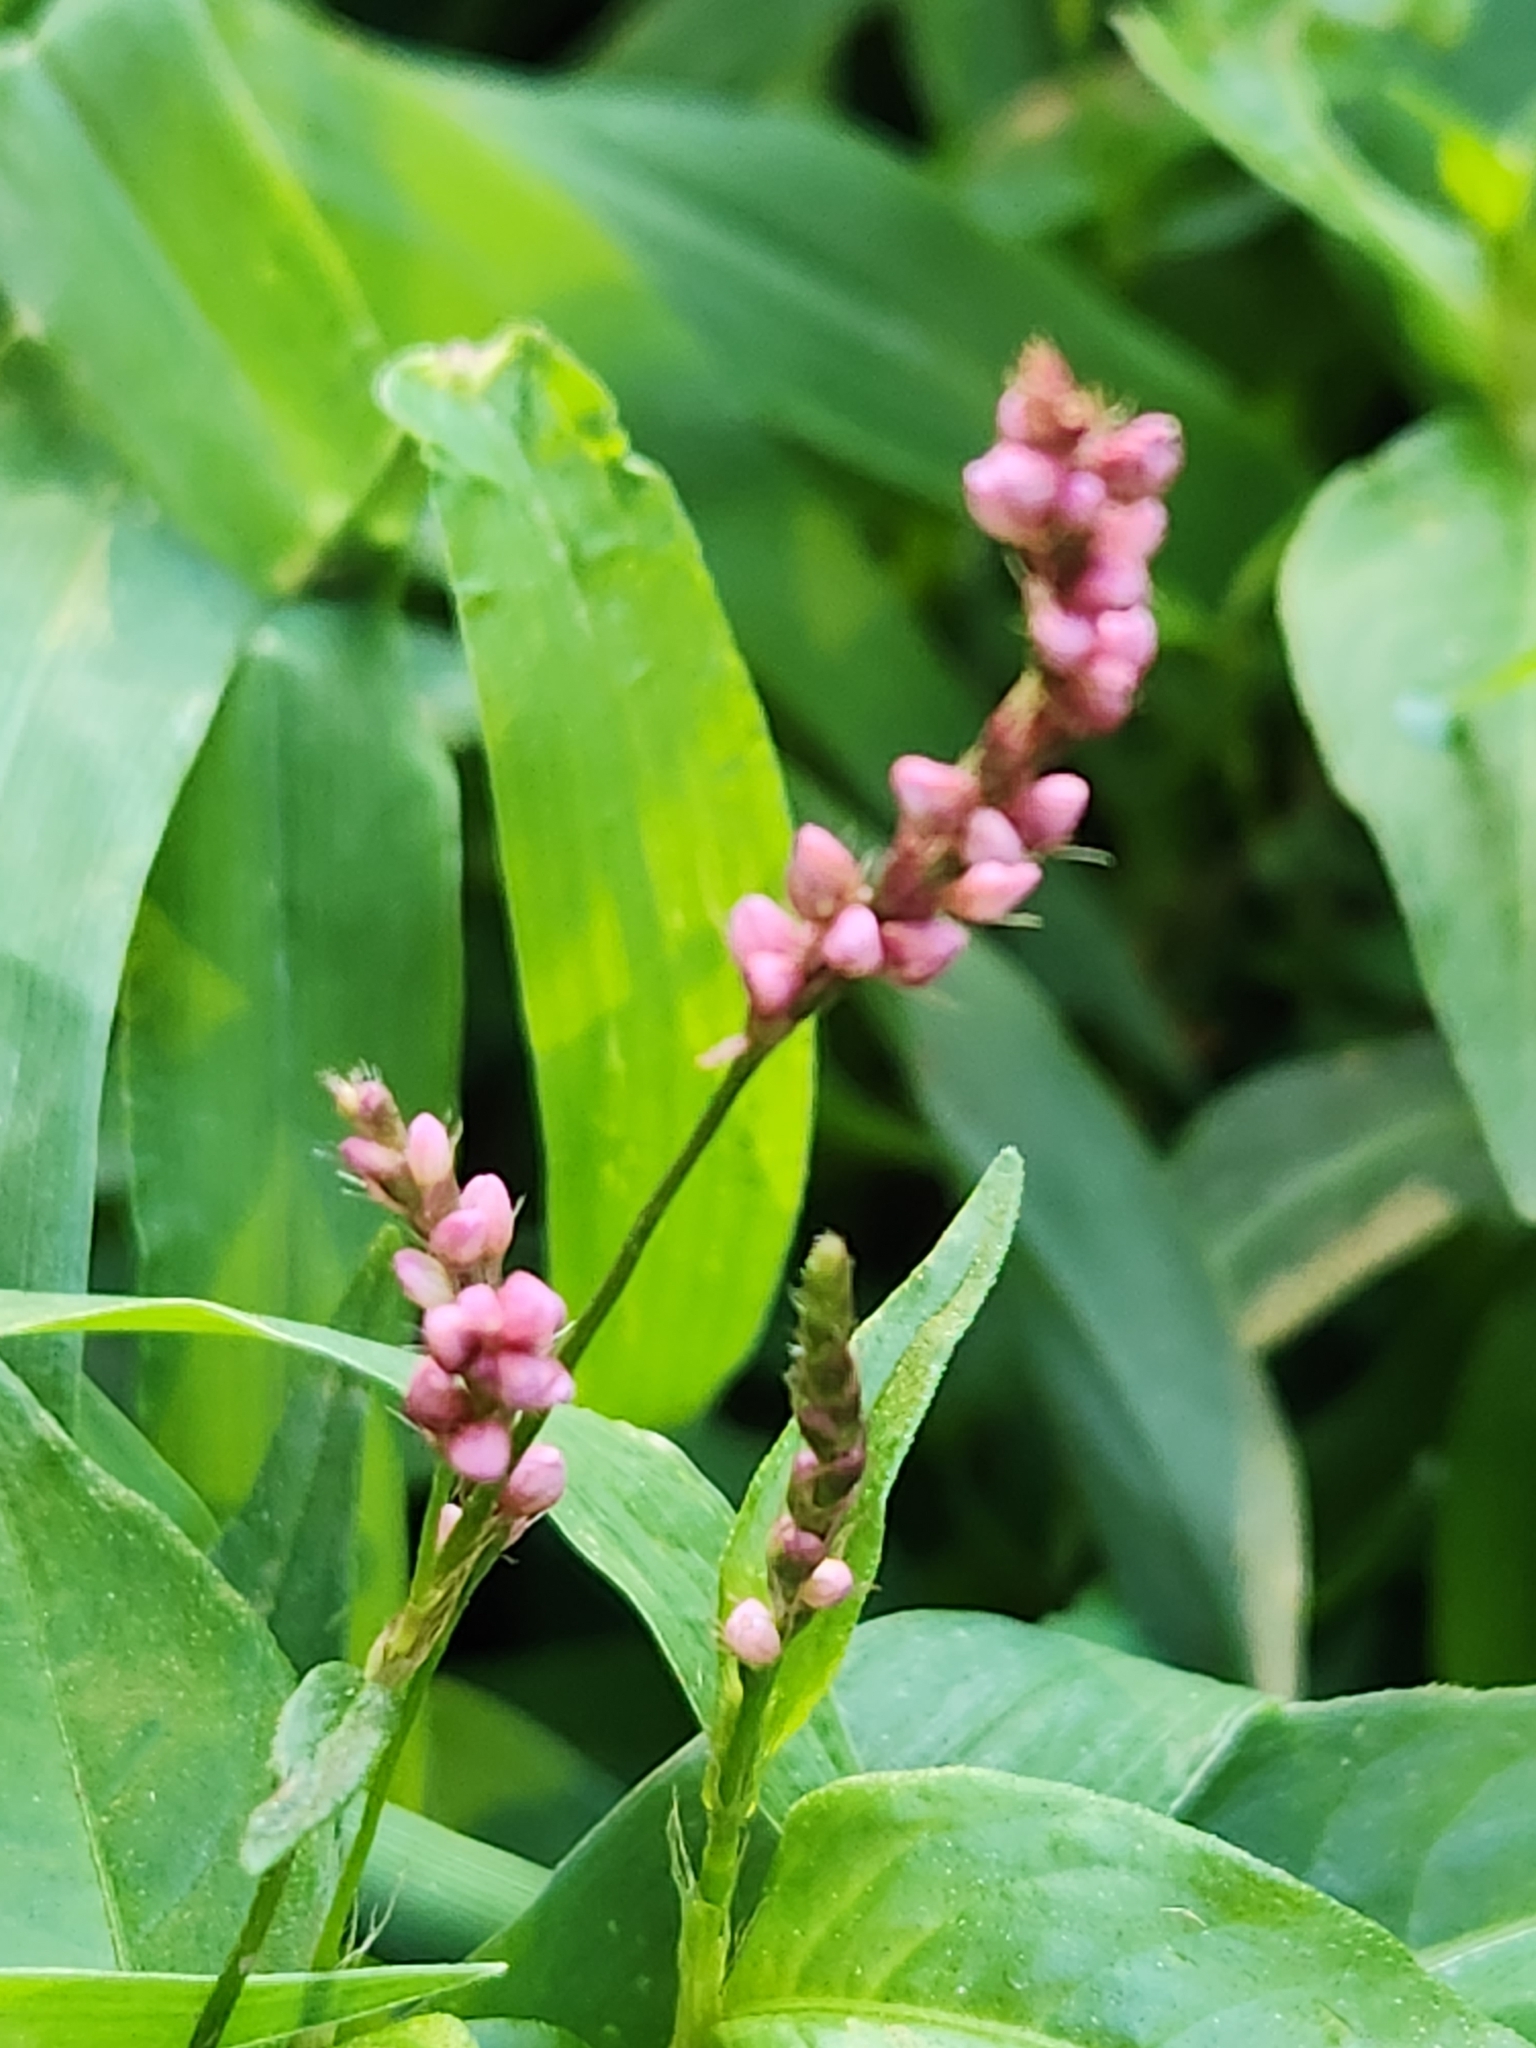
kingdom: Plantae
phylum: Tracheophyta
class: Magnoliopsida
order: Caryophyllales
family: Polygonaceae
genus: Persicaria
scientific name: Persicaria longiseta
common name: Bristly lady's-thumb
